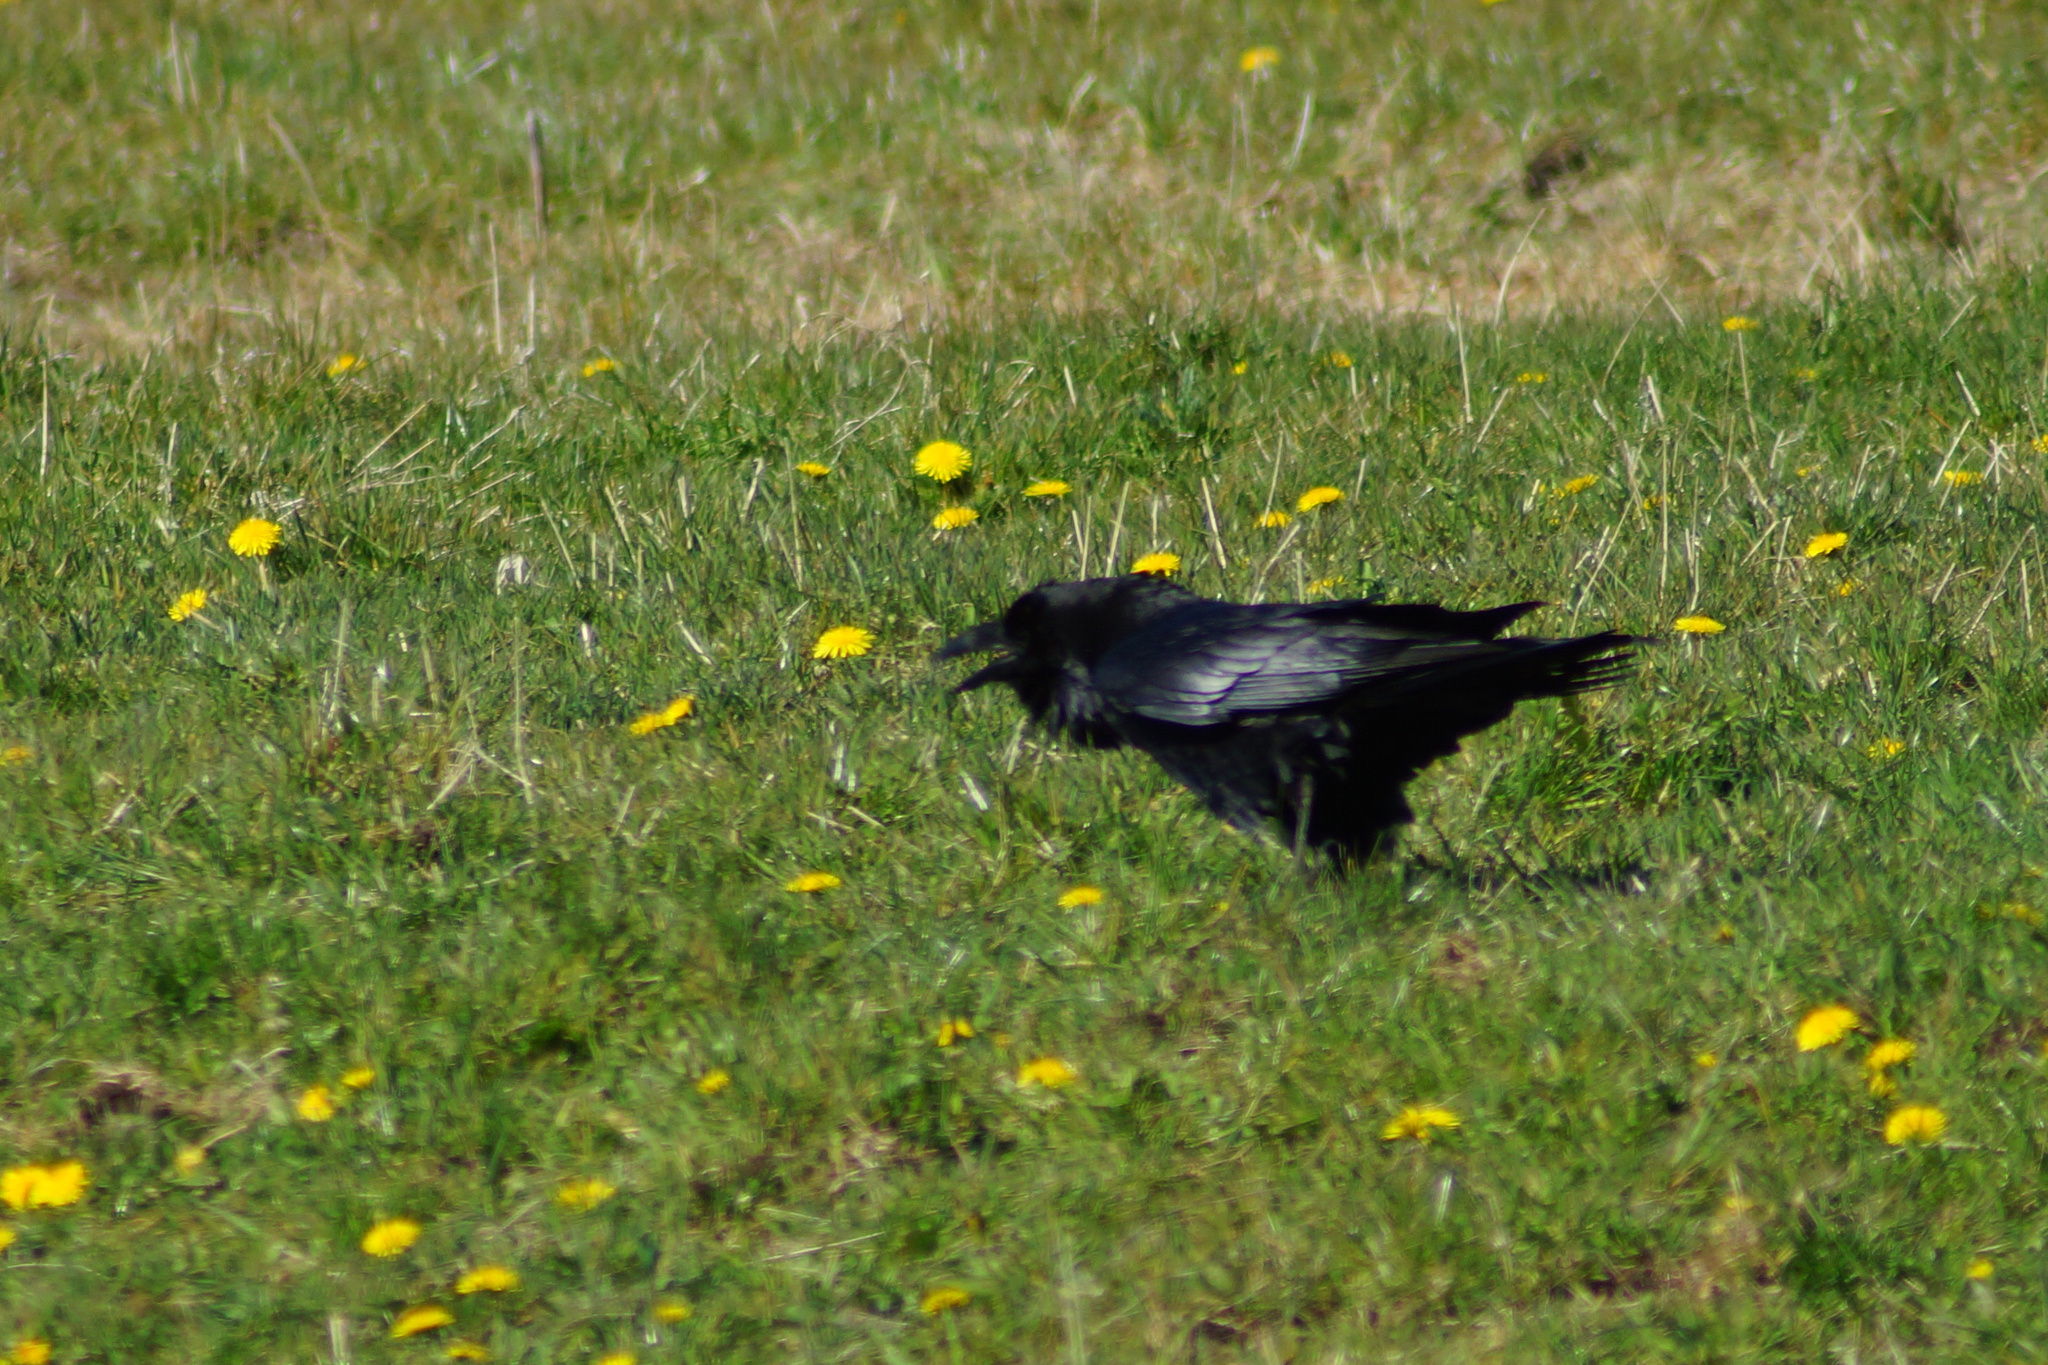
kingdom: Animalia
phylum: Chordata
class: Aves
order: Passeriformes
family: Corvidae
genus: Corvus
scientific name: Corvus corax
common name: Common raven
